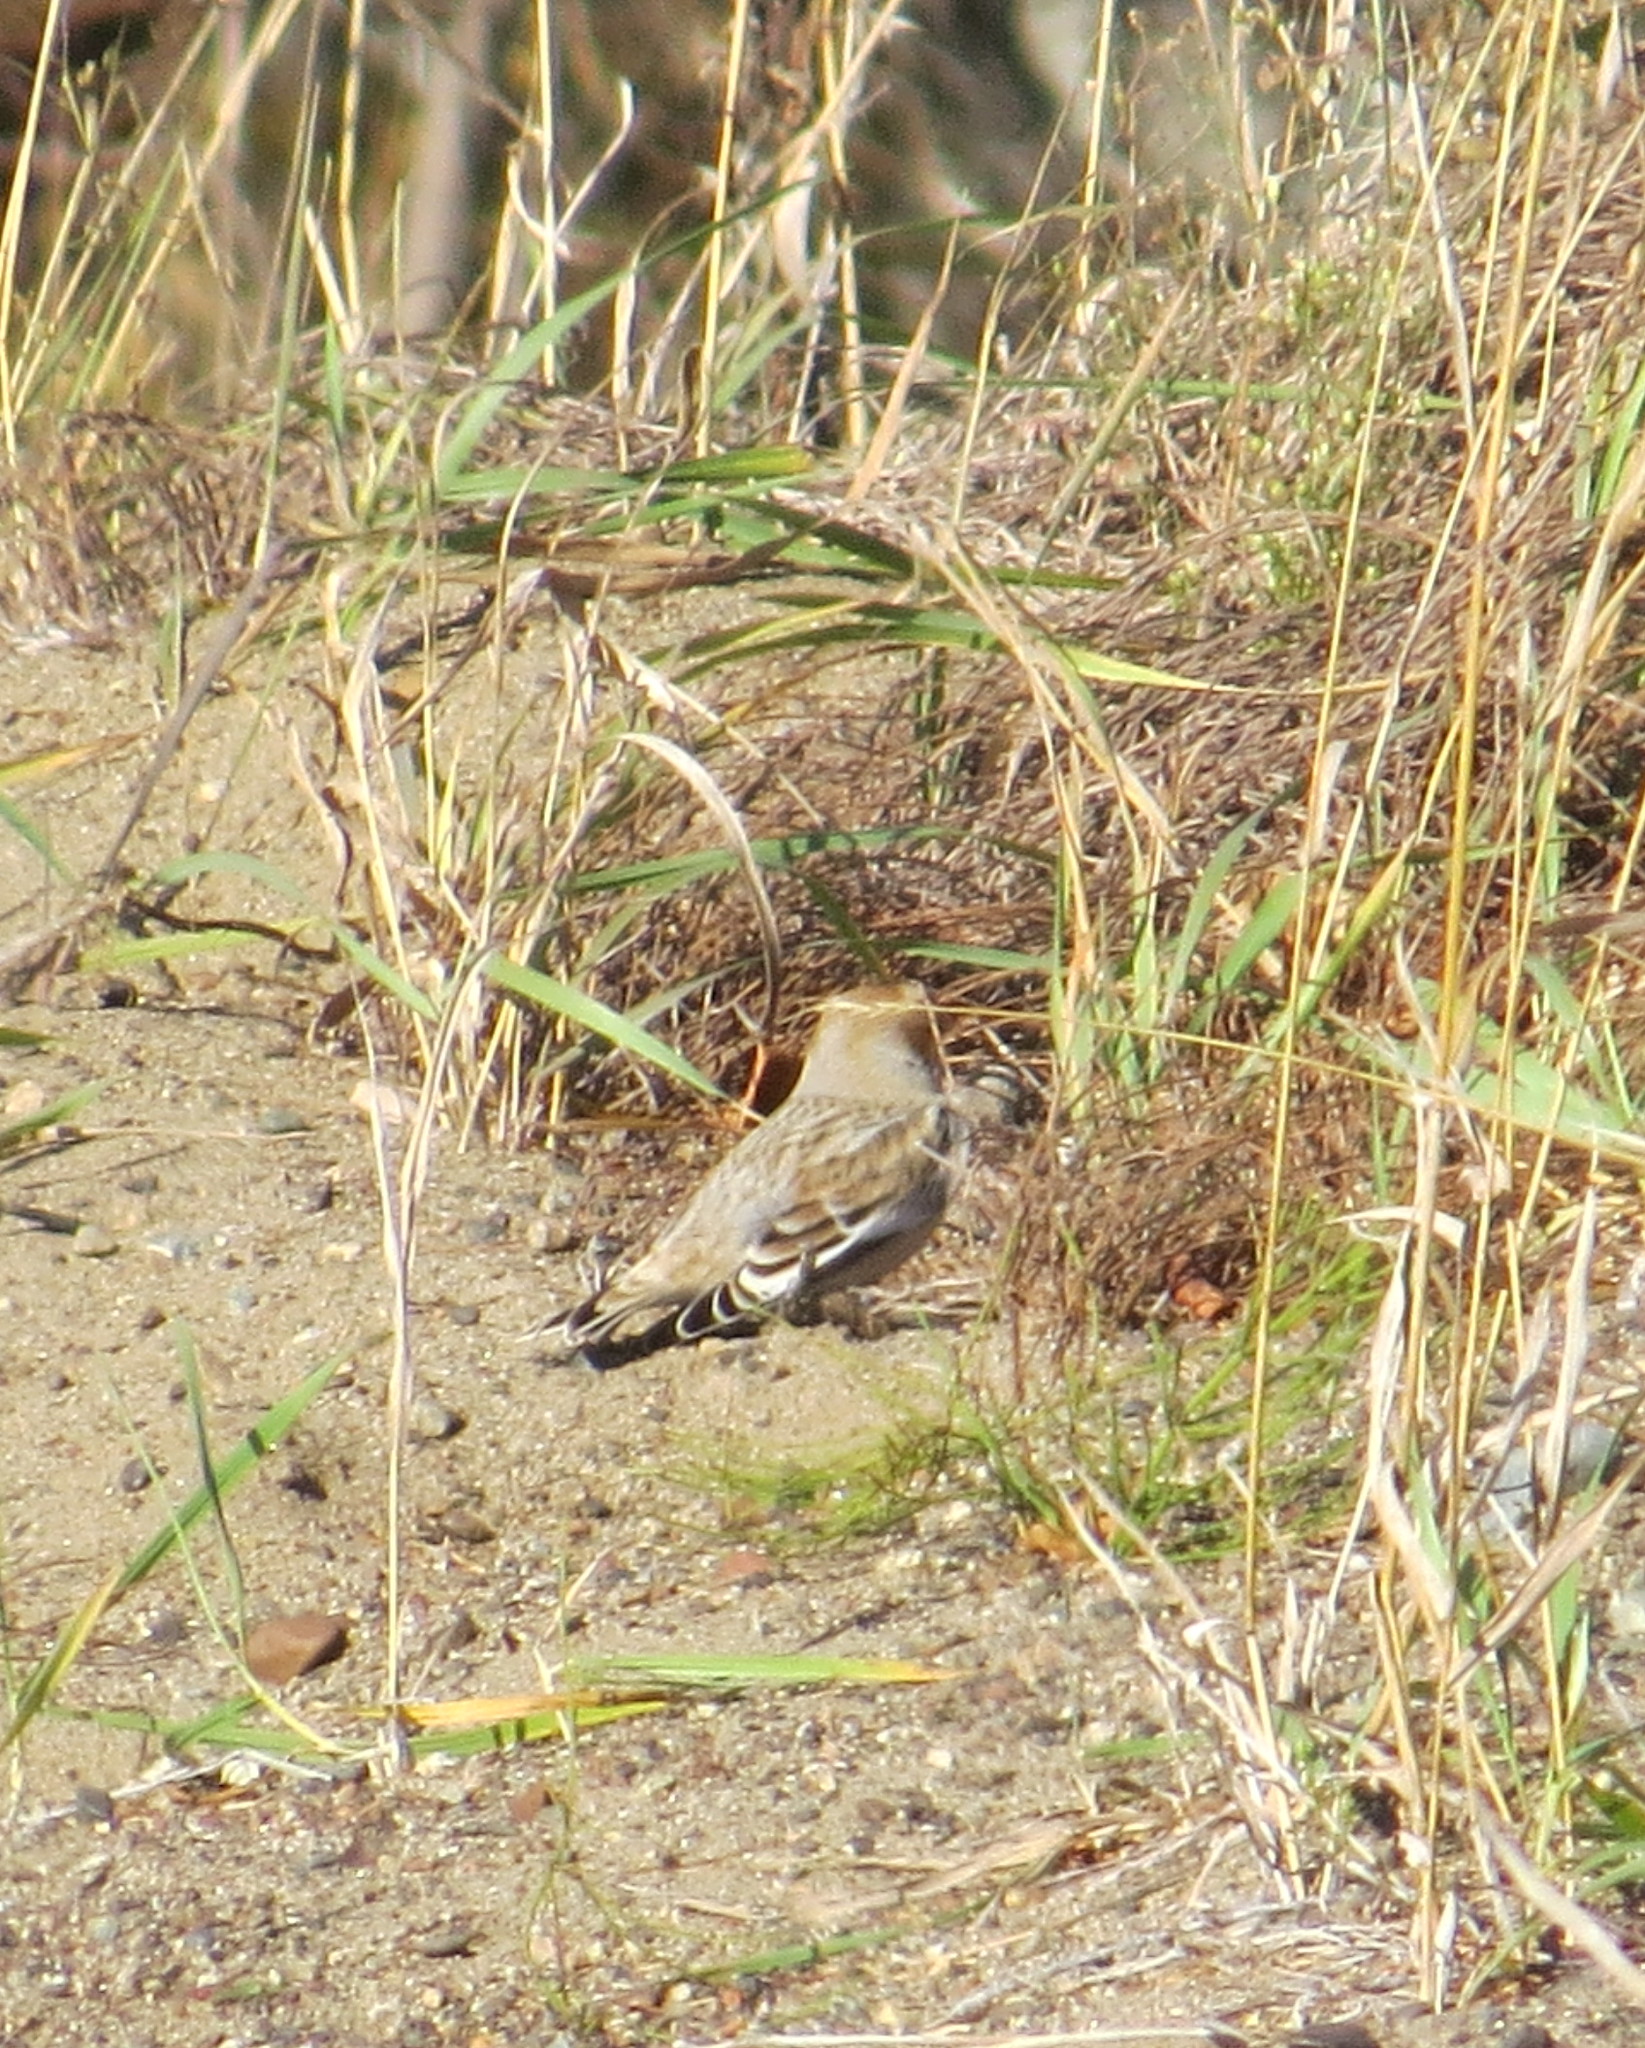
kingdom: Animalia
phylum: Chordata
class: Aves
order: Passeriformes
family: Calcariidae
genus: Plectrophenax
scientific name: Plectrophenax nivalis
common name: Snow bunting
